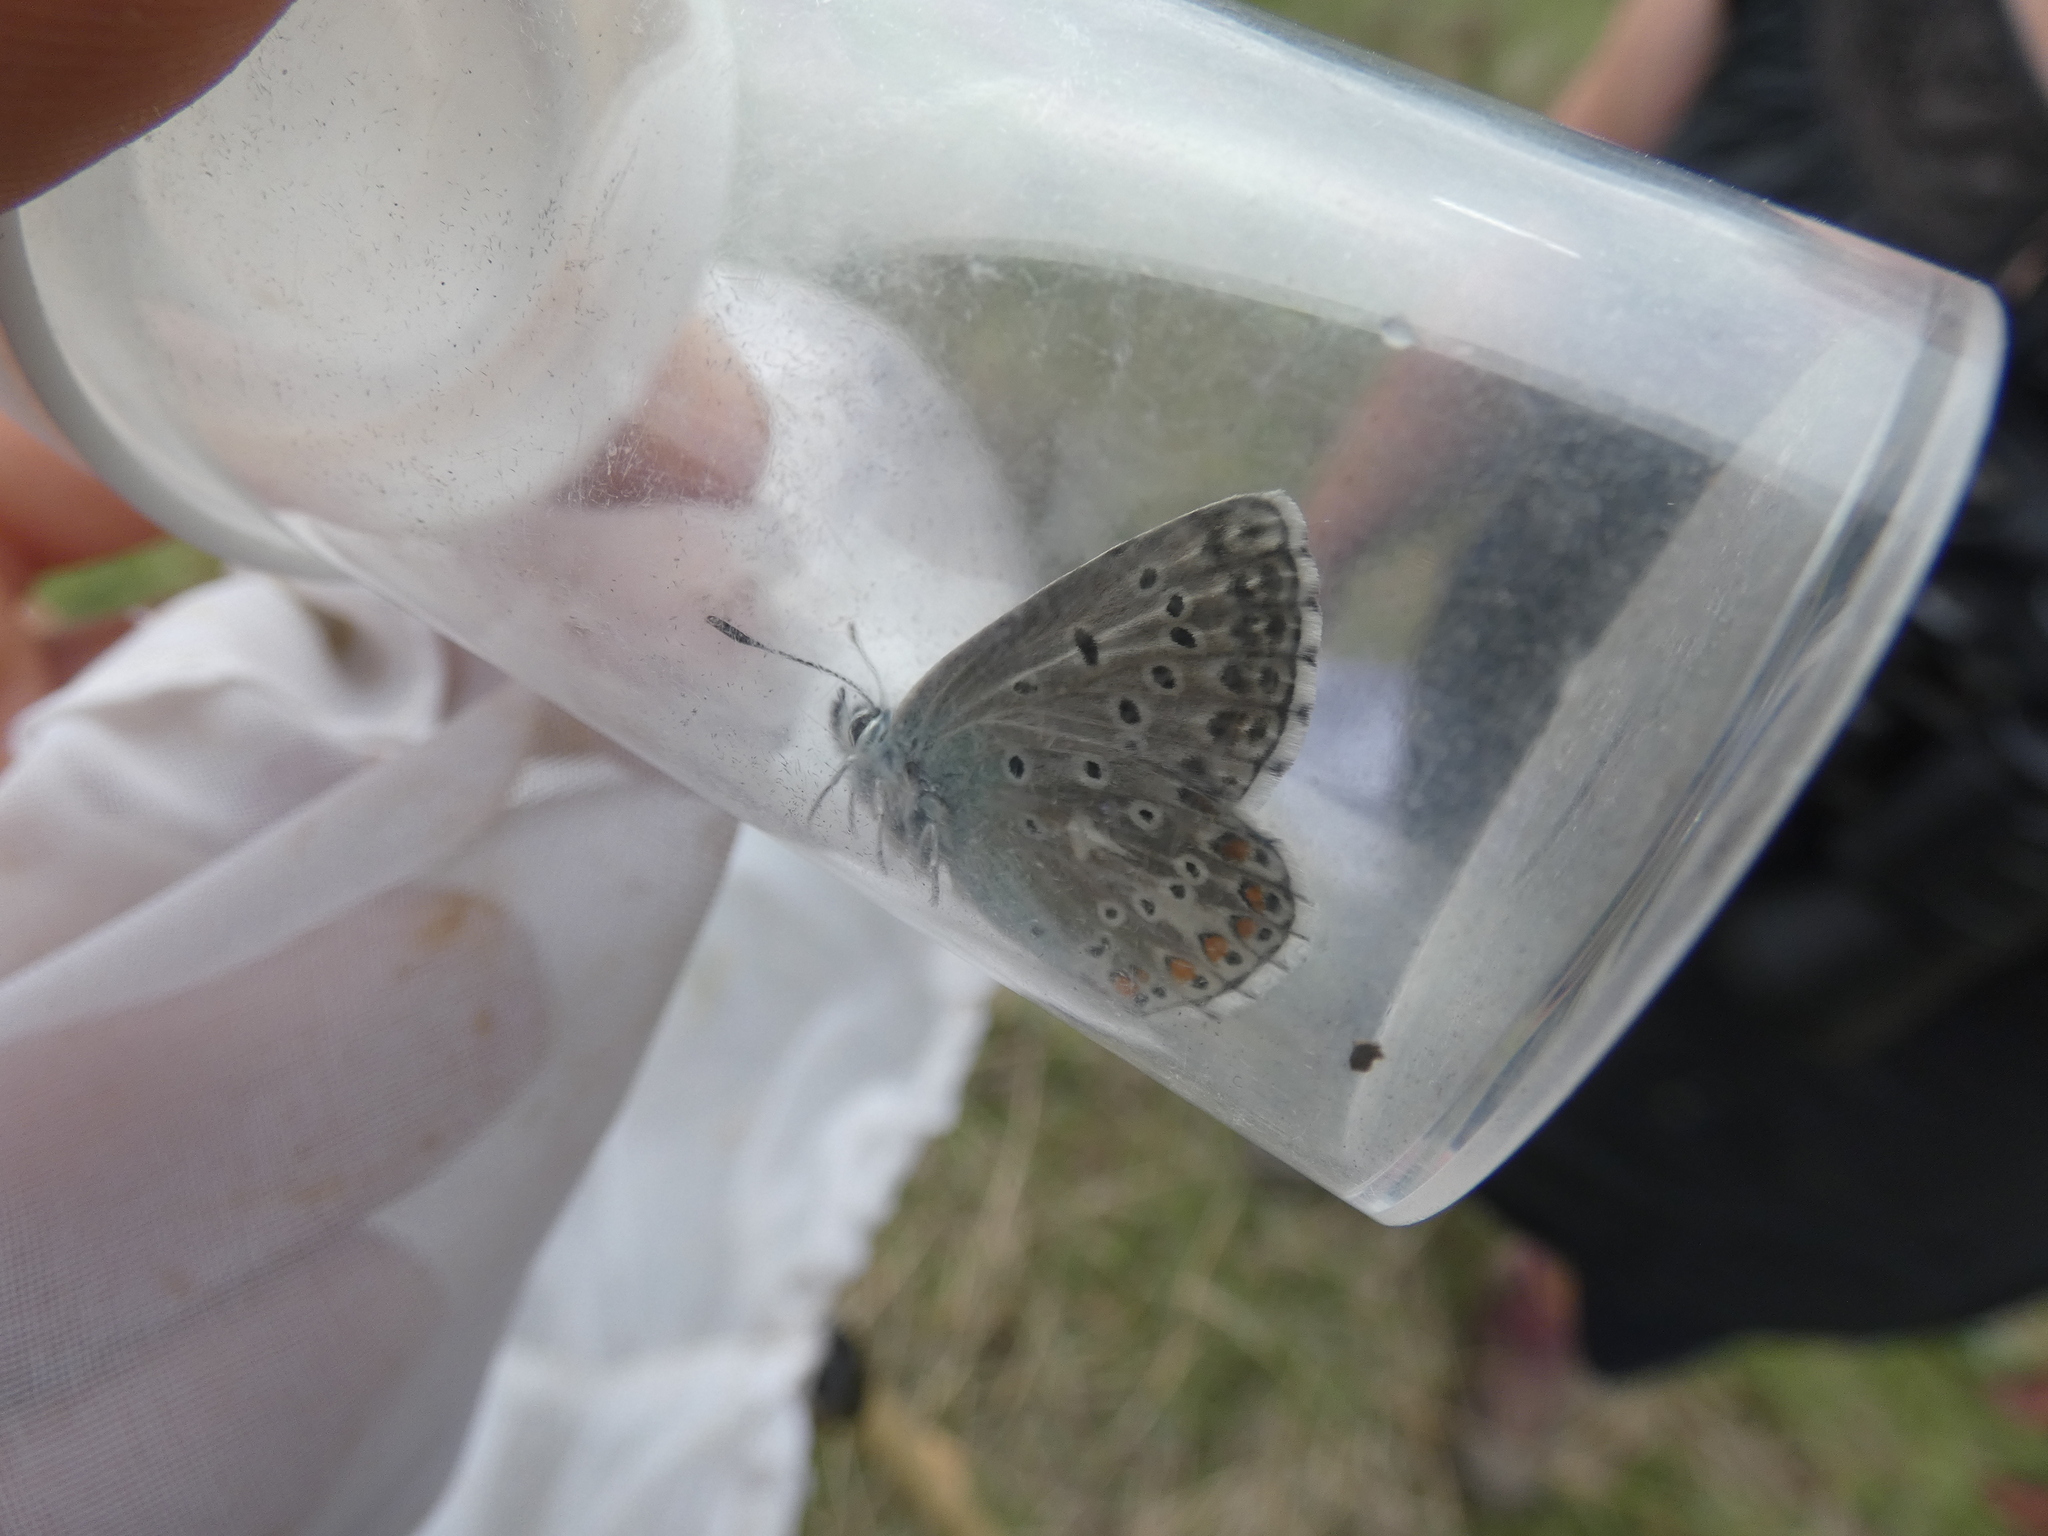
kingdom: Animalia
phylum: Arthropoda
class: Insecta
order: Lepidoptera
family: Lycaenidae
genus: Lysandra
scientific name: Lysandra bellargus
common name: Adonis blue
